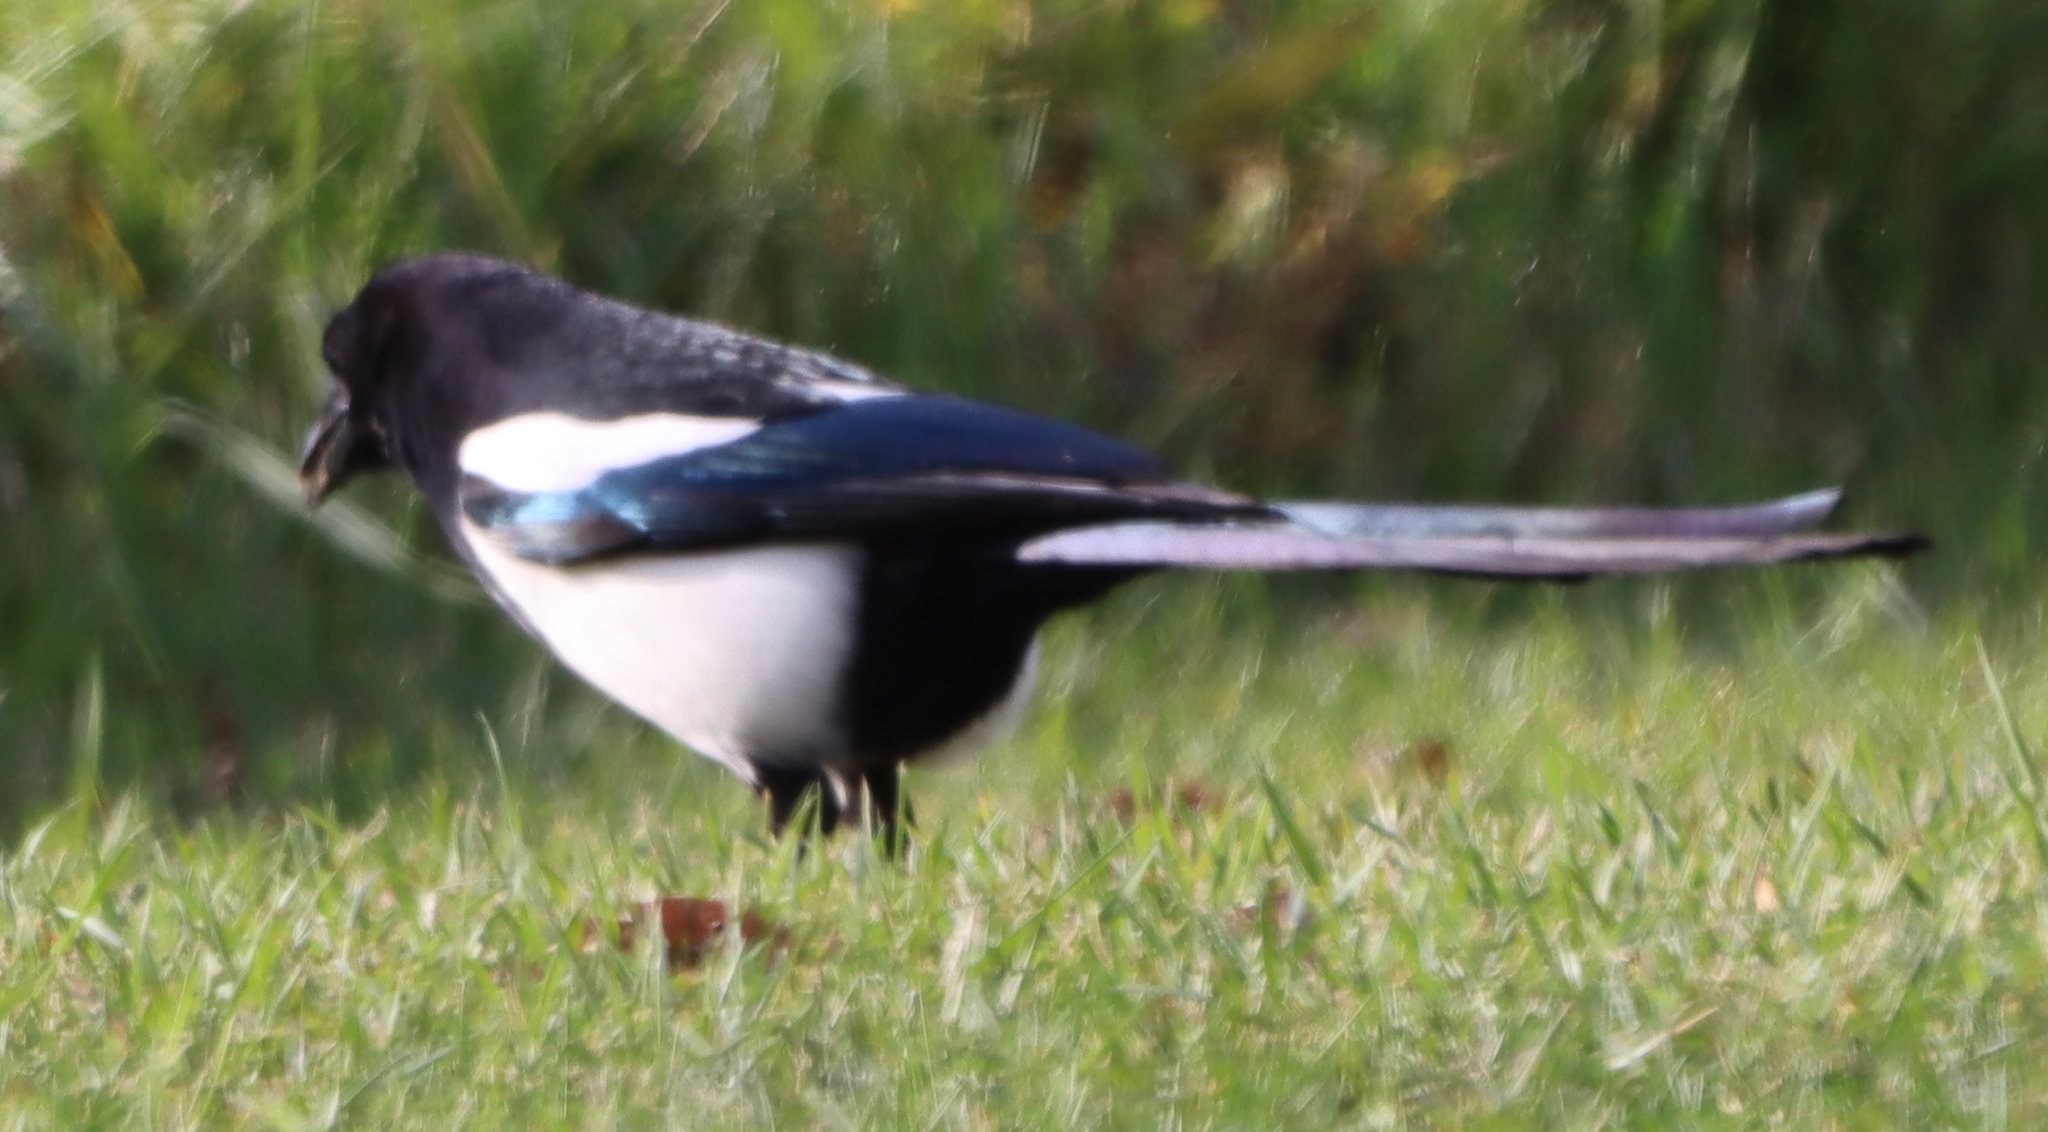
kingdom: Animalia
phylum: Chordata
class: Aves
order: Passeriformes
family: Corvidae
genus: Pica
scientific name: Pica hudsonia
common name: Black-billed magpie
